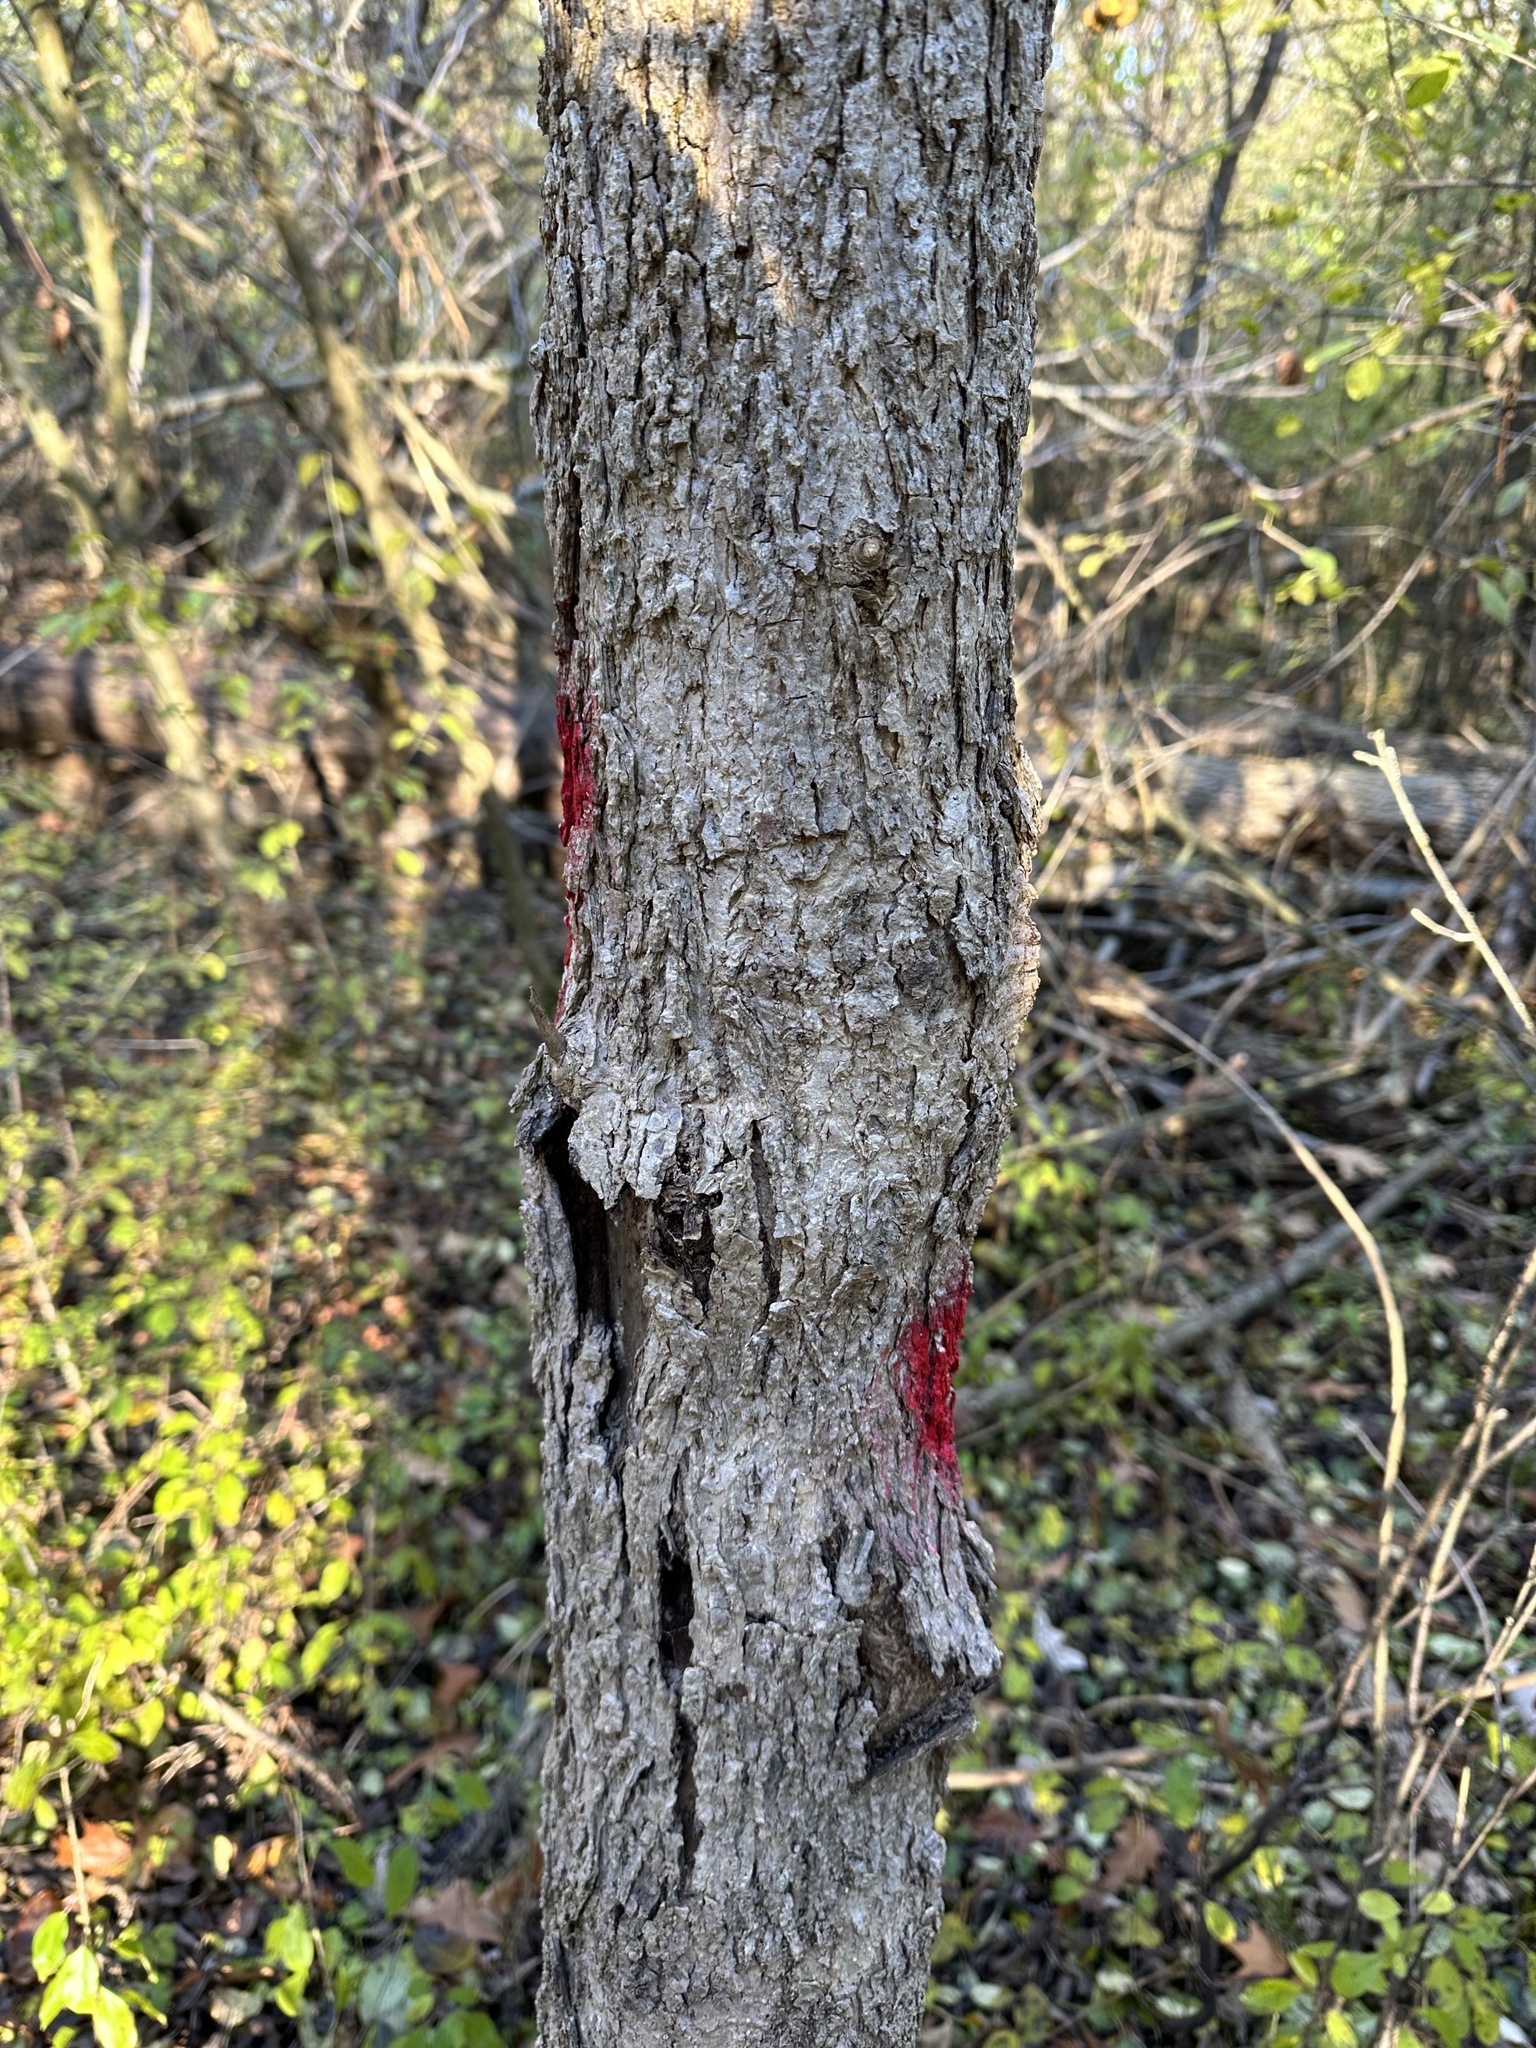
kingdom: Plantae
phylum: Tracheophyta
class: Magnoliopsida
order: Lamiales
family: Oleaceae
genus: Fraxinus
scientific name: Fraxinus nigra
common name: Black ash
